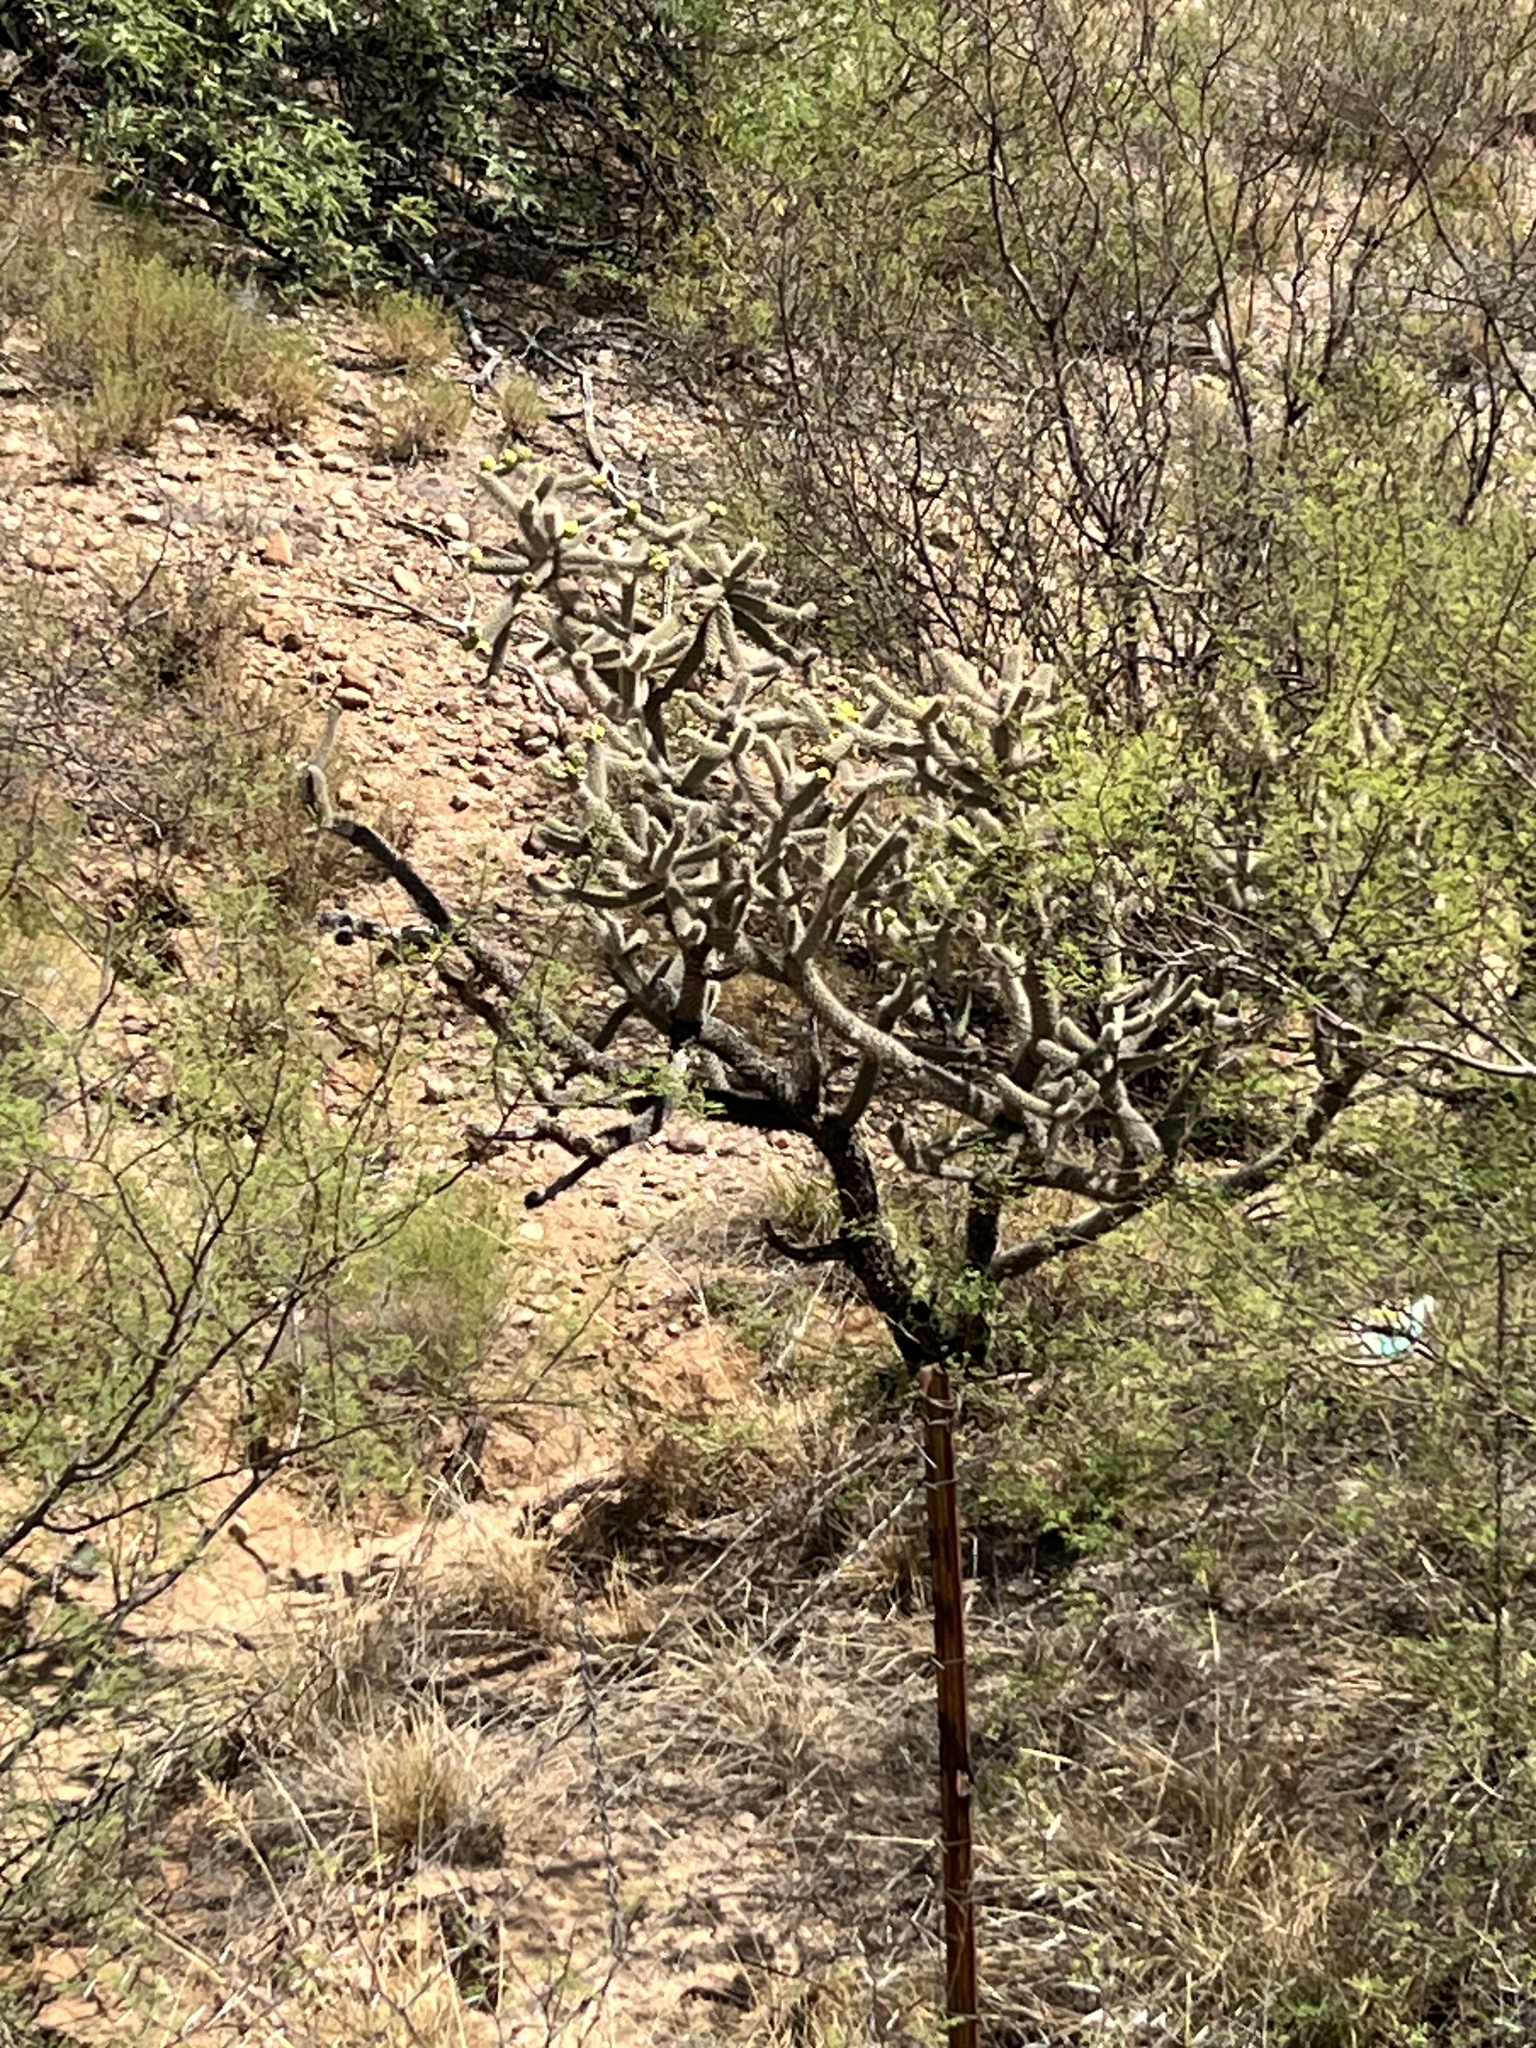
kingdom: Plantae
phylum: Tracheophyta
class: Magnoliopsida
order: Caryophyllales
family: Cactaceae
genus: Cylindropuntia
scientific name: Cylindropuntia imbricata
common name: Candelabrum cactus
